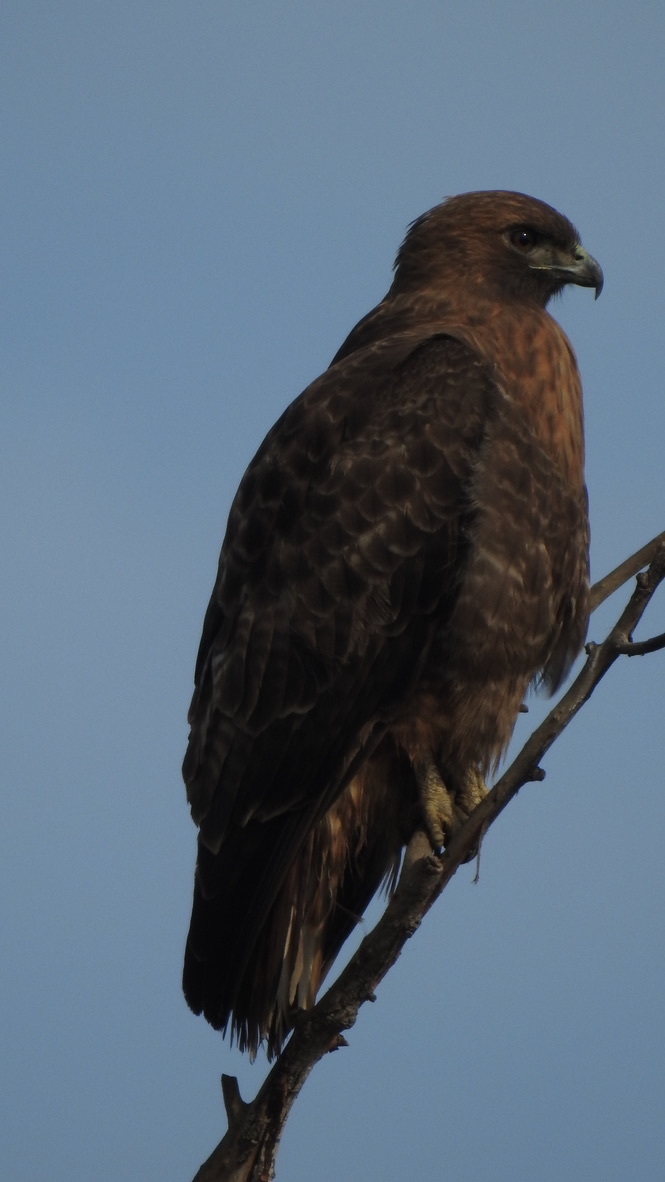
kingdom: Animalia
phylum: Chordata
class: Aves
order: Accipitriformes
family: Accipitridae
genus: Buteo
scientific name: Buteo jamaicensis
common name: Red-tailed hawk
